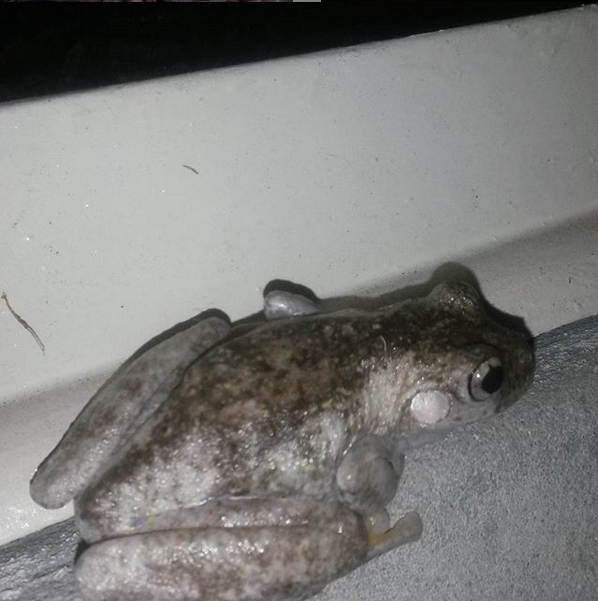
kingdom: Animalia
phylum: Chordata
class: Amphibia
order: Anura
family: Pelodryadidae
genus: Litoria
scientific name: Litoria peronii
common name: Emerald spotted treefrog
